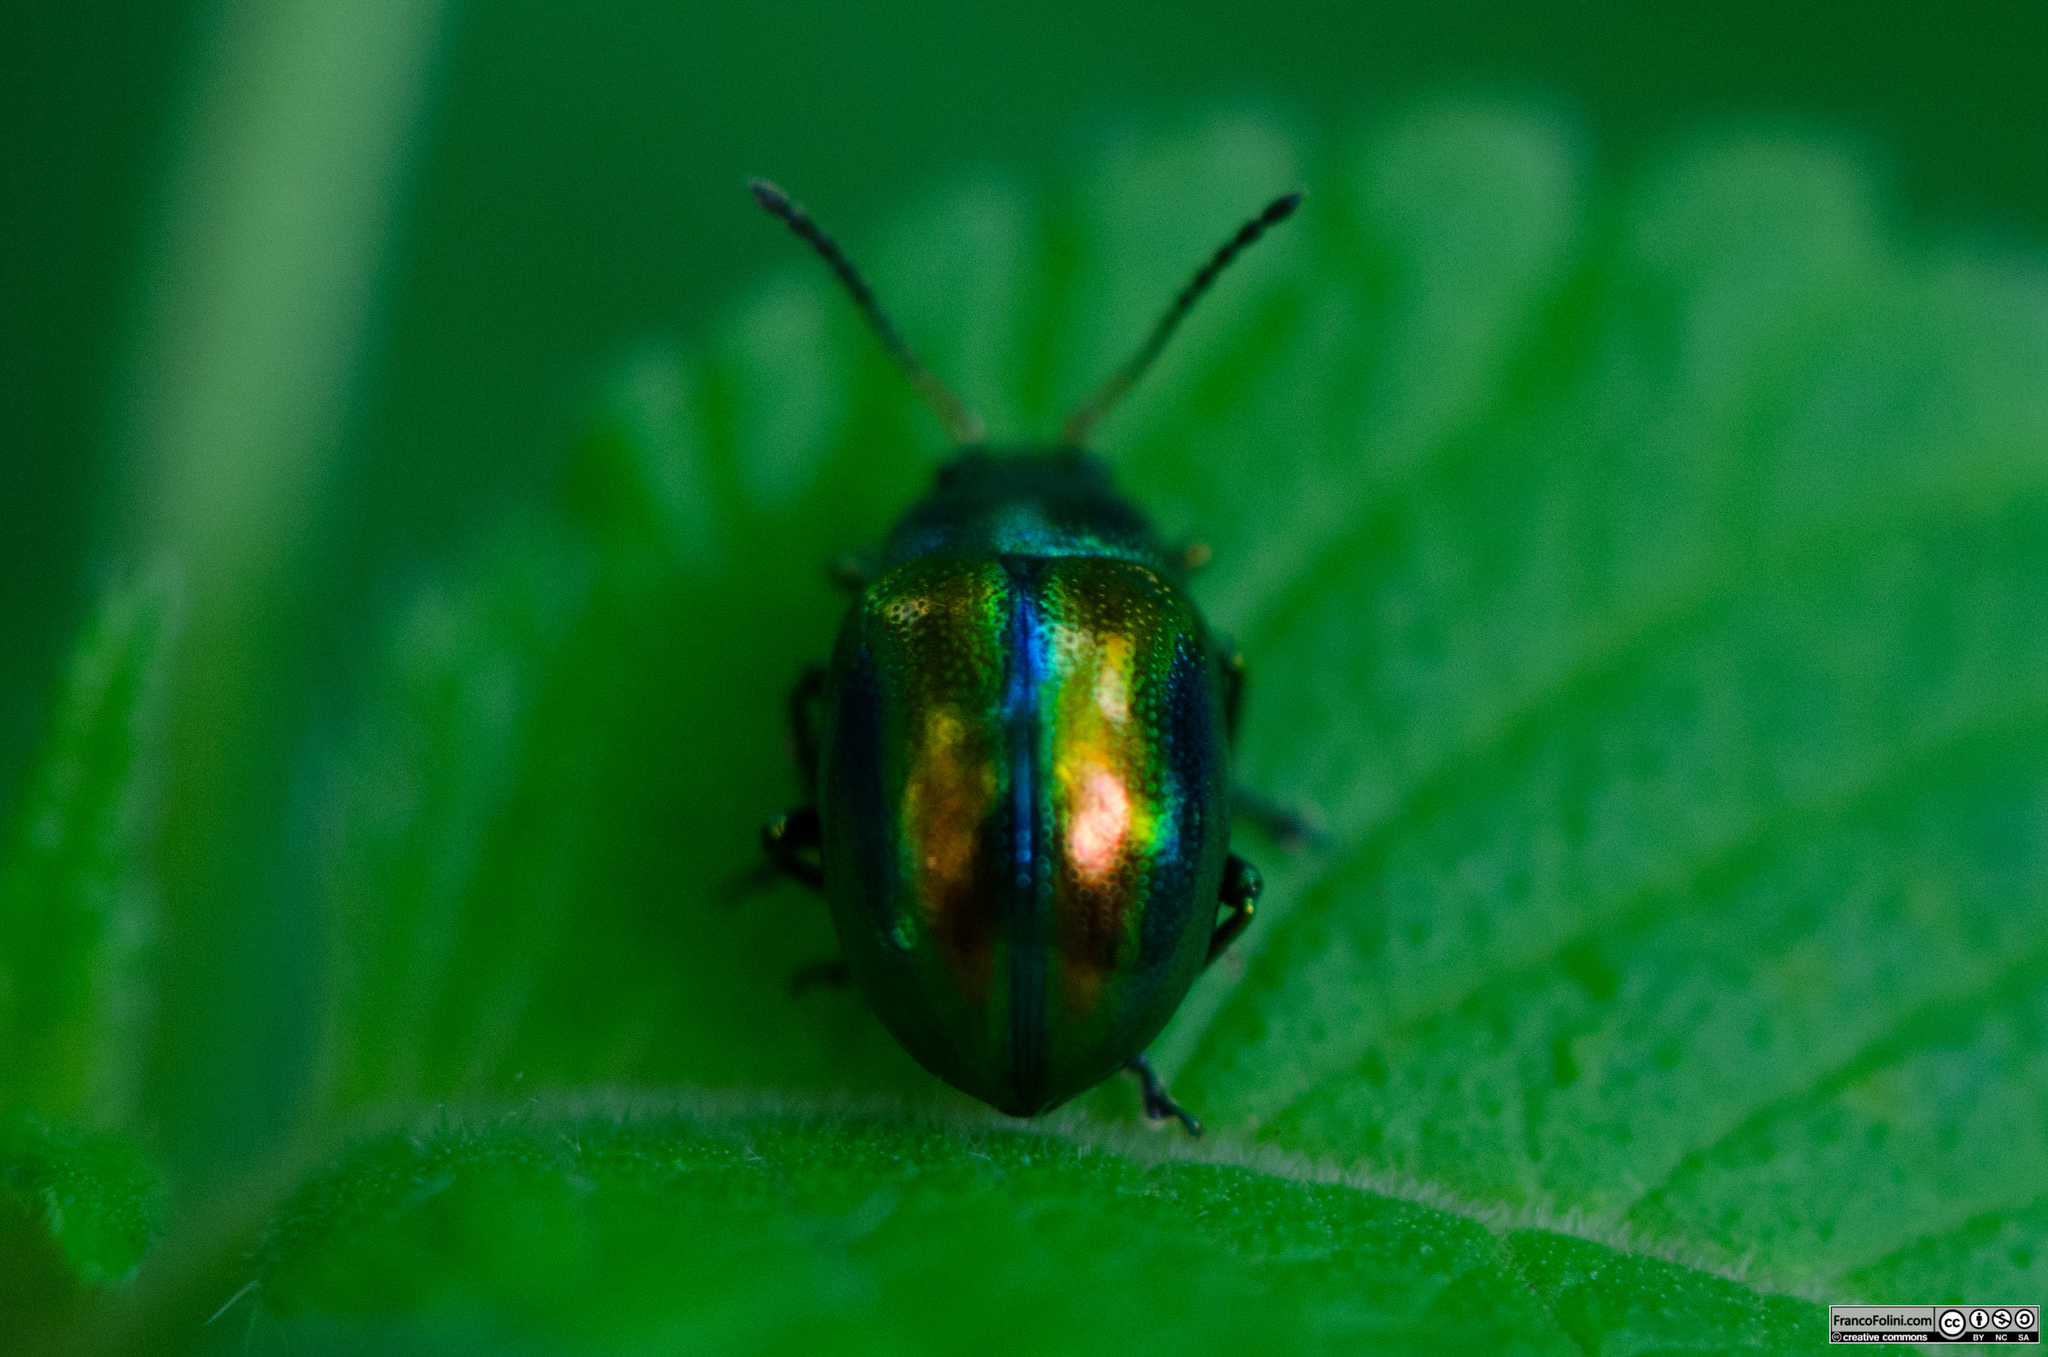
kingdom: Animalia
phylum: Arthropoda
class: Insecta
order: Coleoptera
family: Chrysomelidae
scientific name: Chrysomelidae
